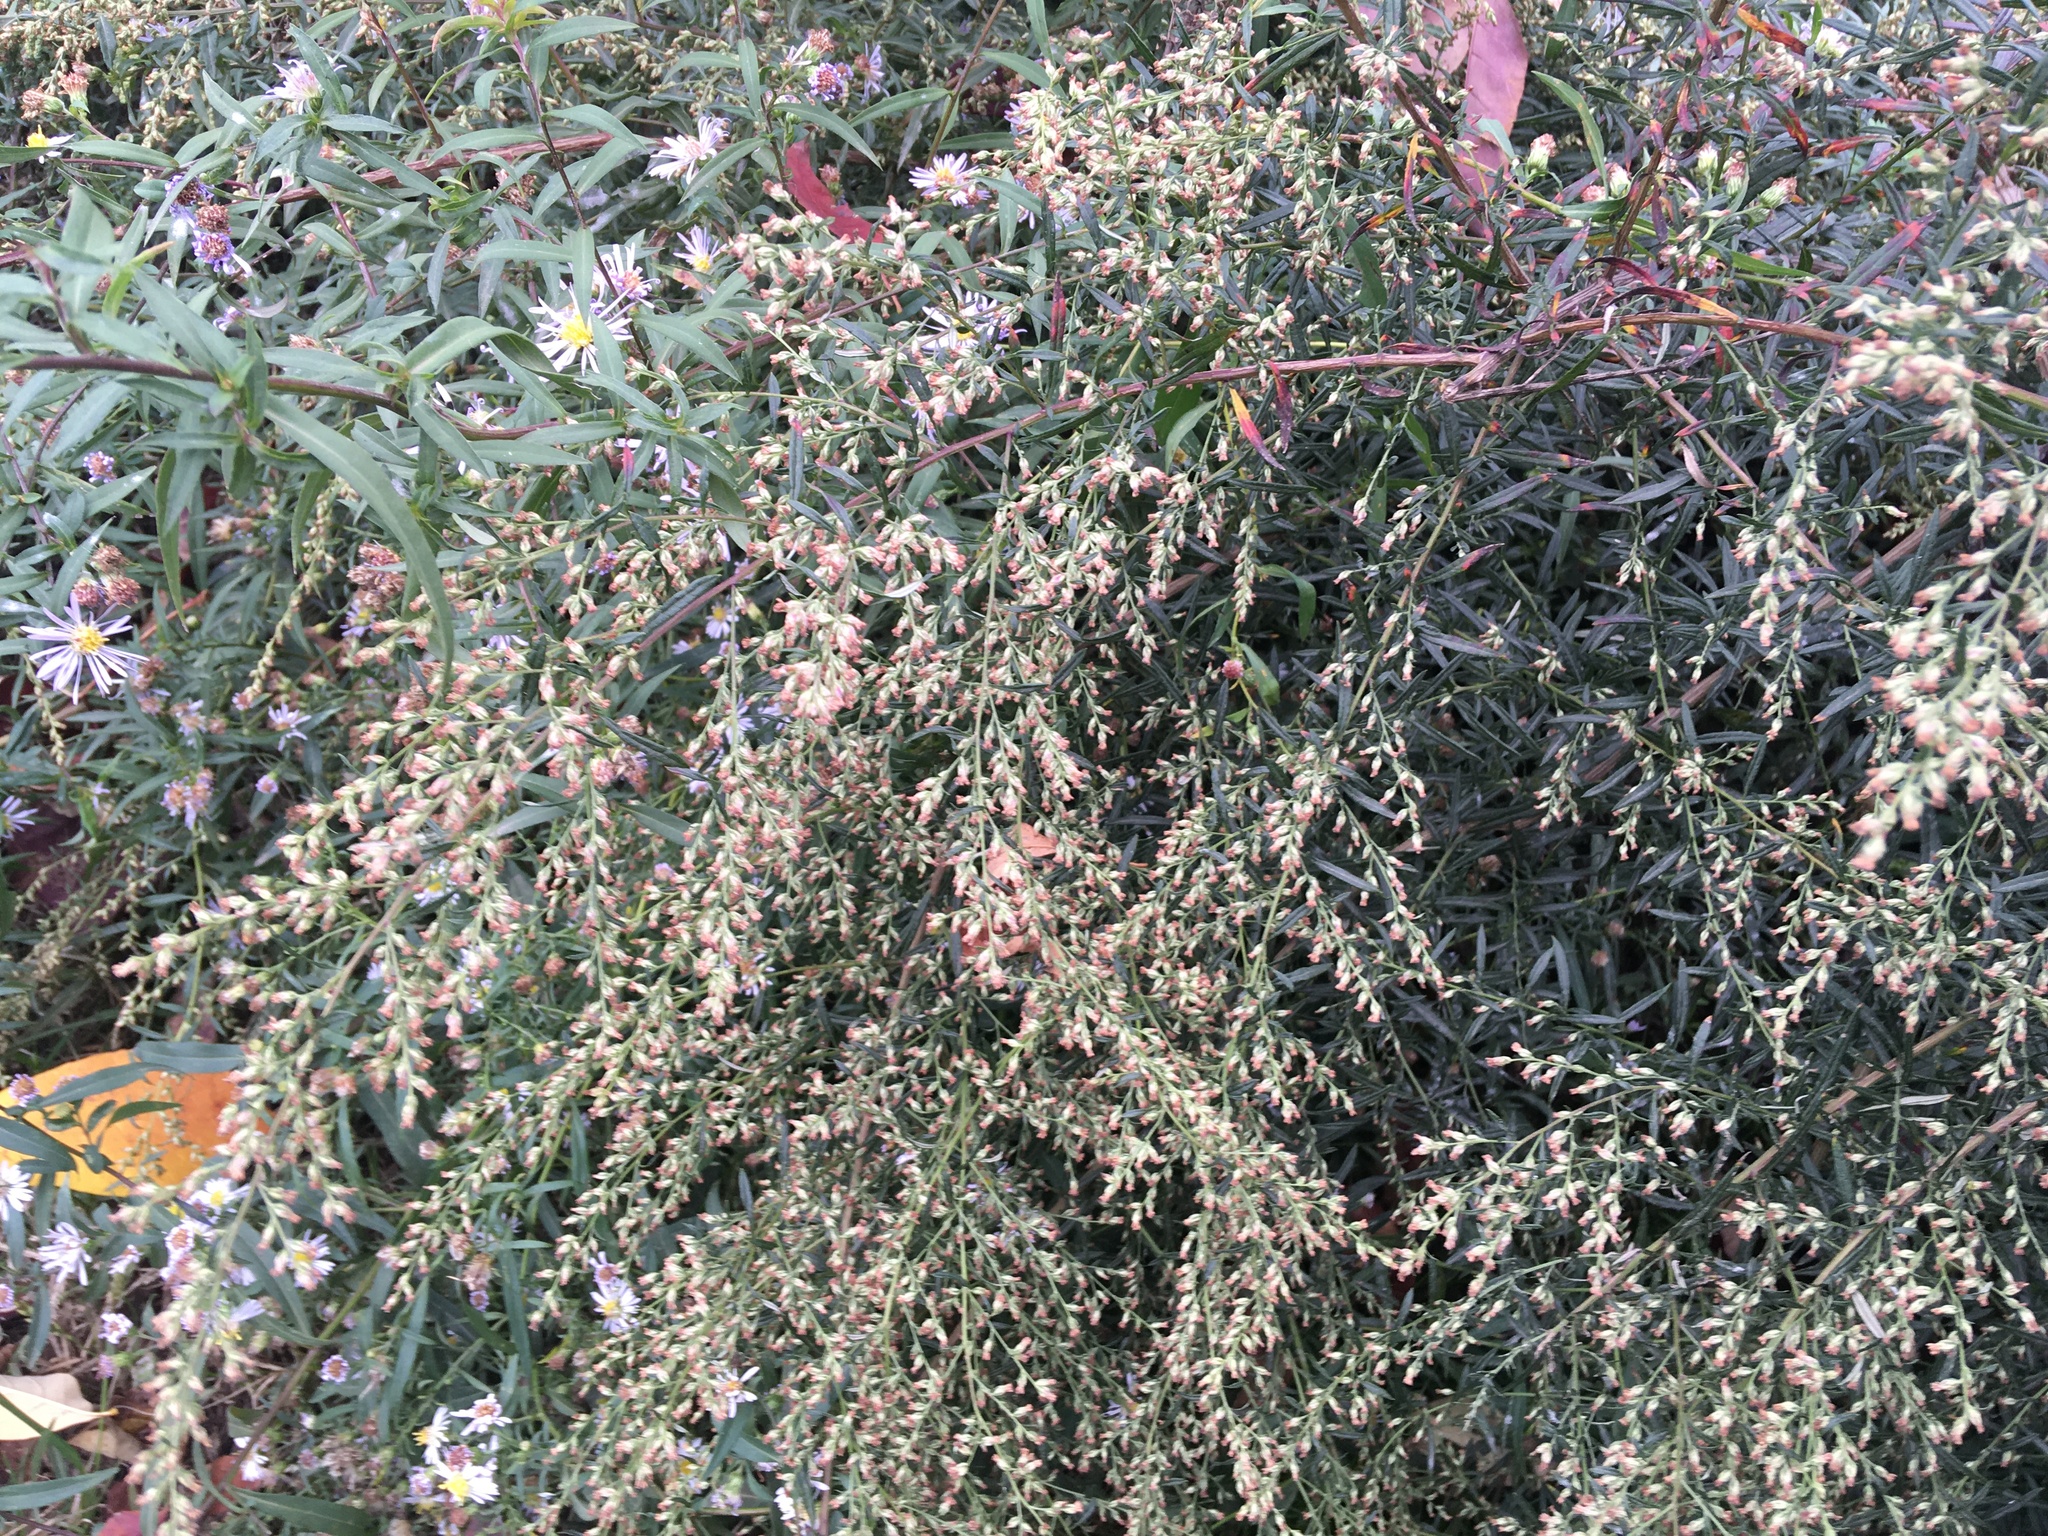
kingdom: Plantae
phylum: Tracheophyta
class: Magnoliopsida
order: Asterales
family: Asteraceae
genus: Artemisia
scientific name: Artemisia vulgaris
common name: Mugwort
